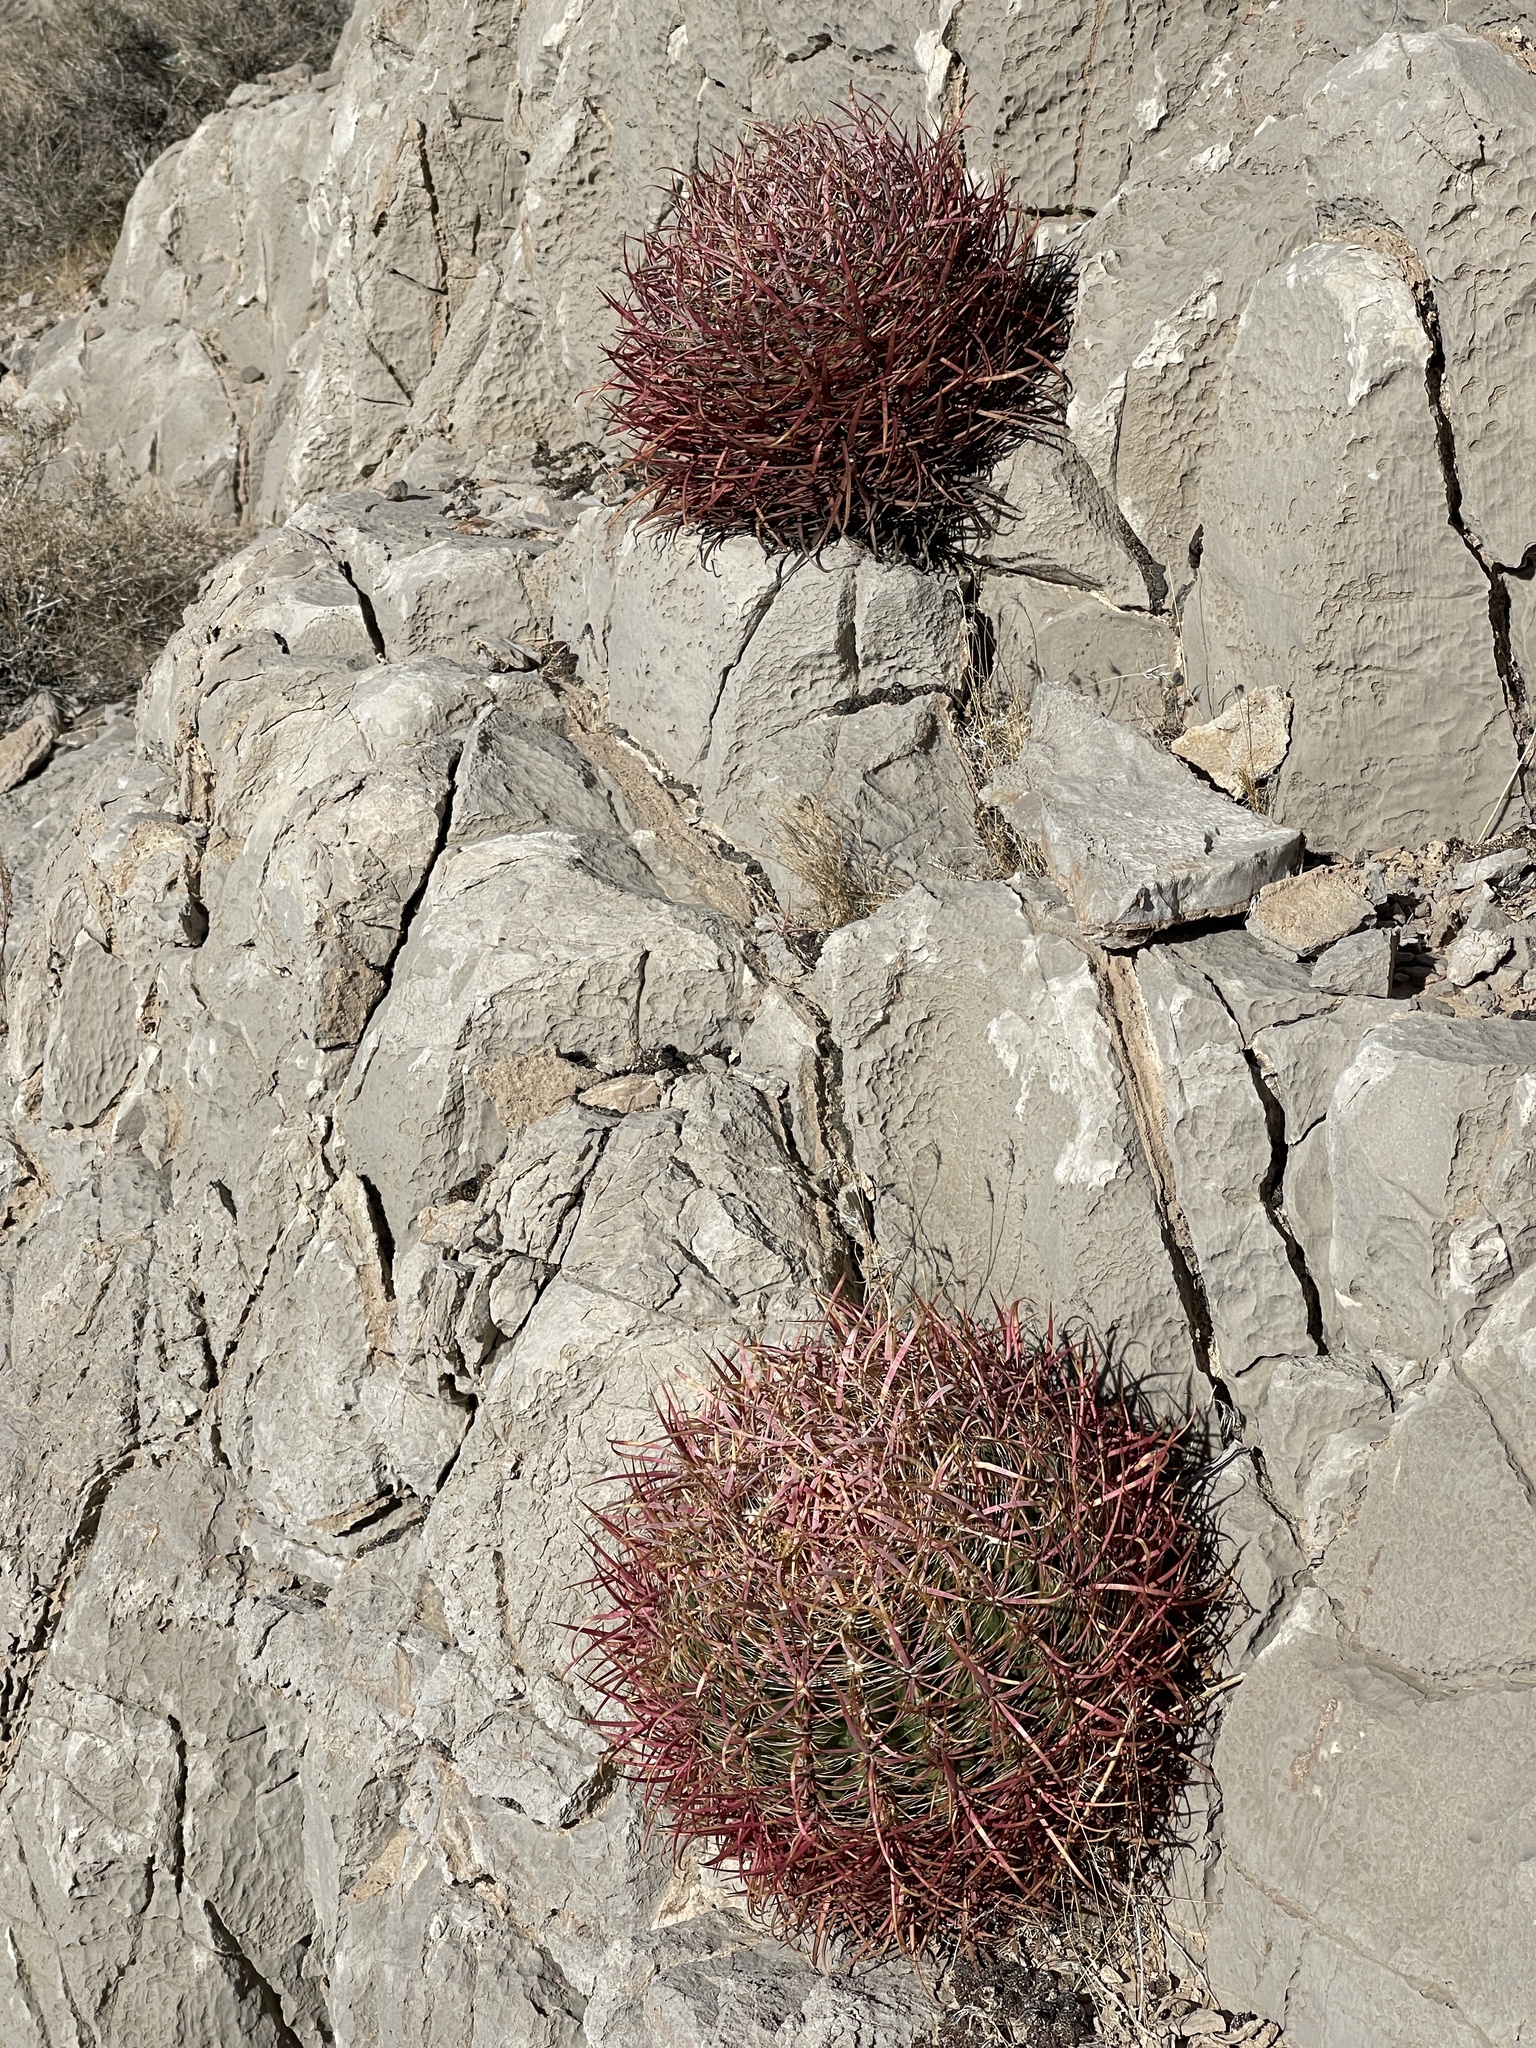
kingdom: Plantae
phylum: Tracheophyta
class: Magnoliopsida
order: Caryophyllales
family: Cactaceae
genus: Ferocactus
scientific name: Ferocactus cylindraceus
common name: California barrel cactus
